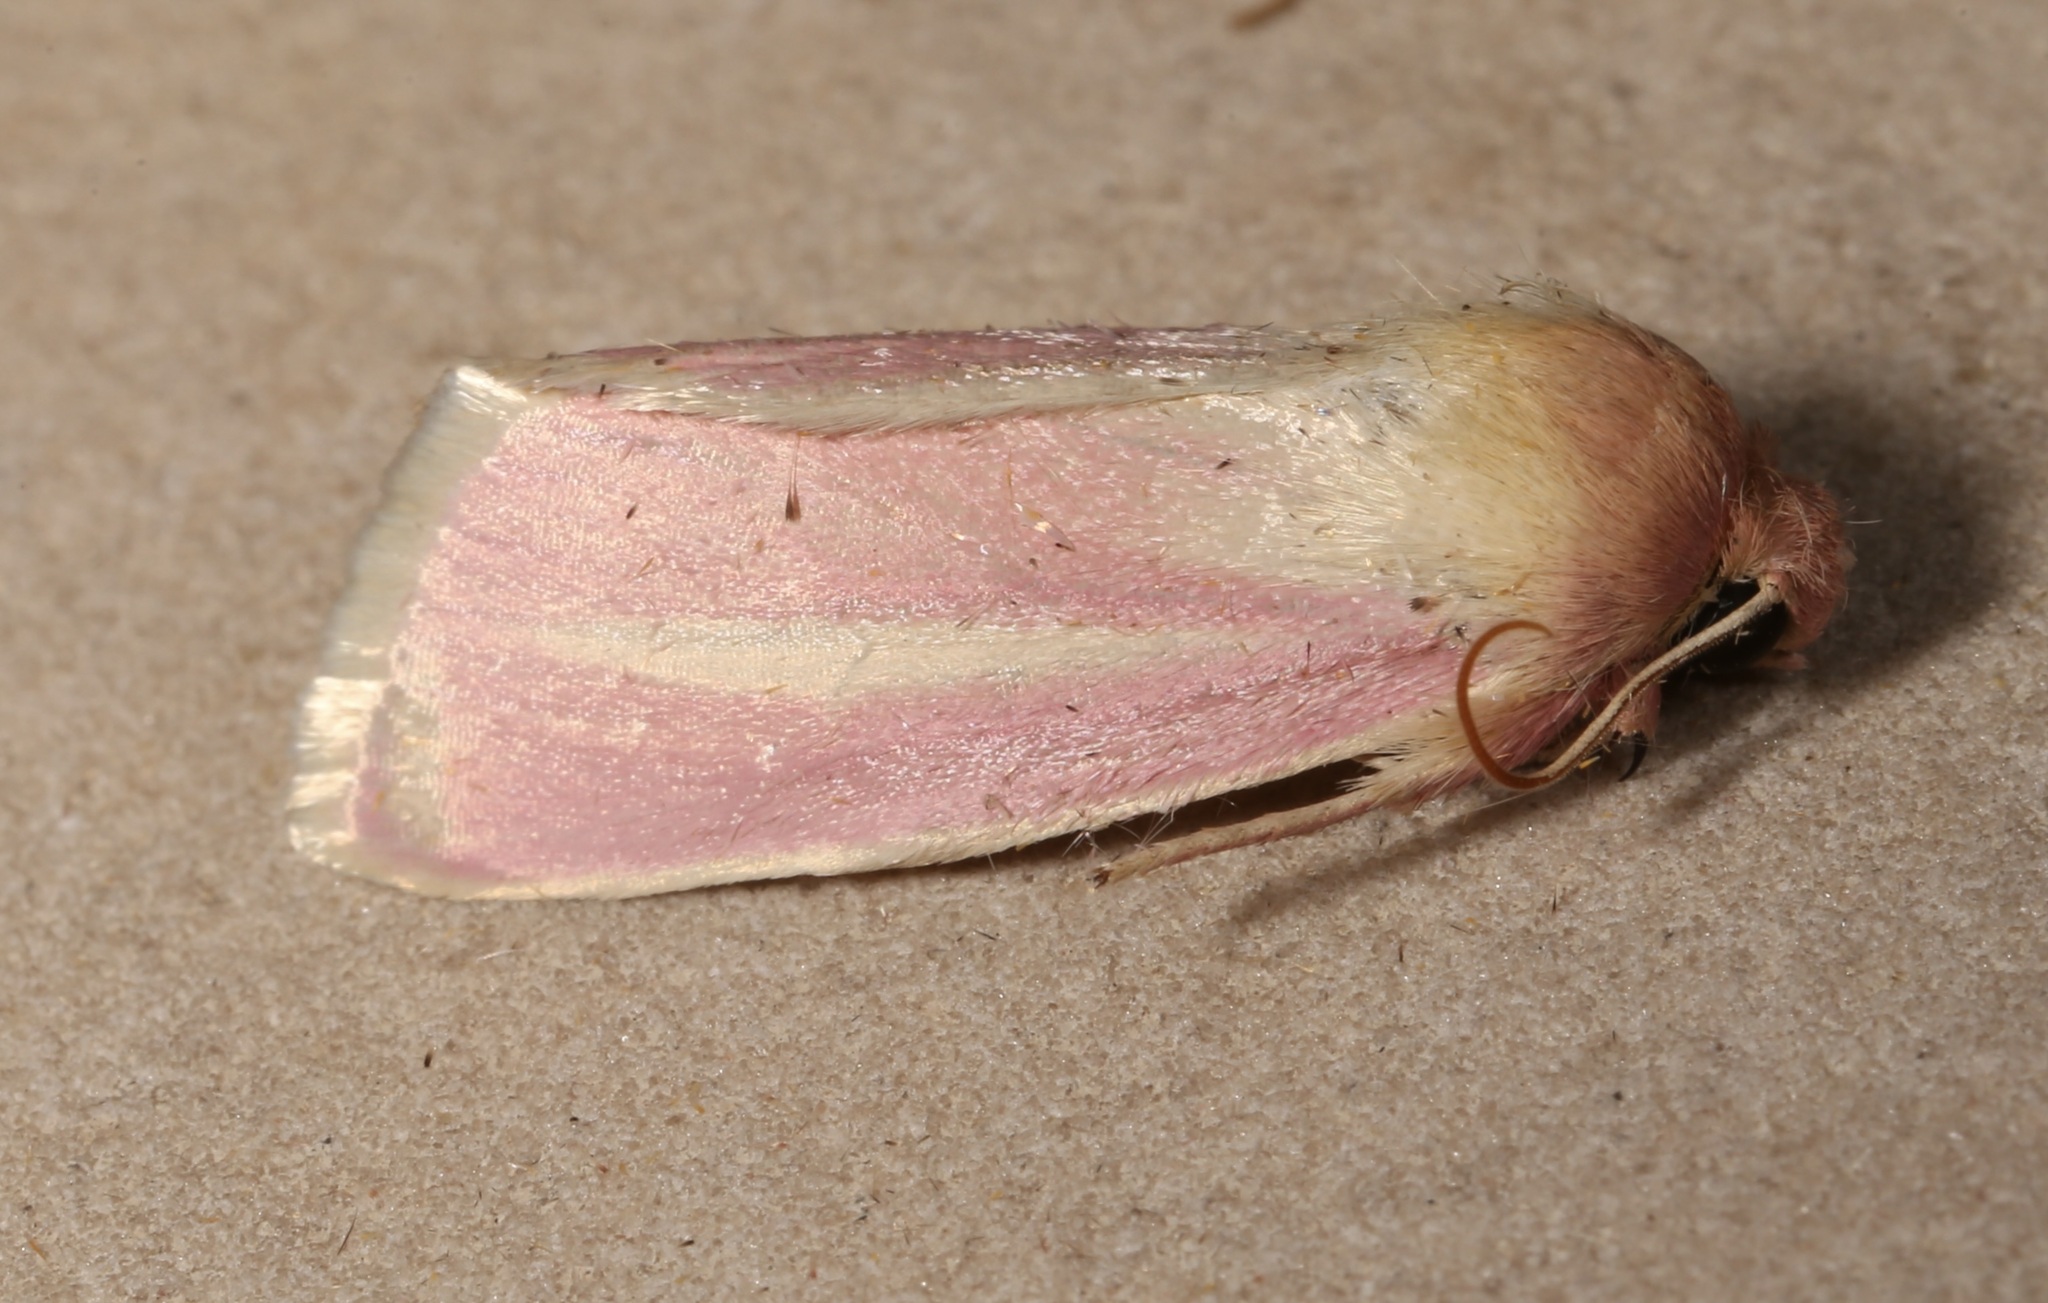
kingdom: Animalia
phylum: Arthropoda
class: Insecta
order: Lepidoptera
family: Noctuidae
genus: Heliocheilus
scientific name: Heliocheilus julia
